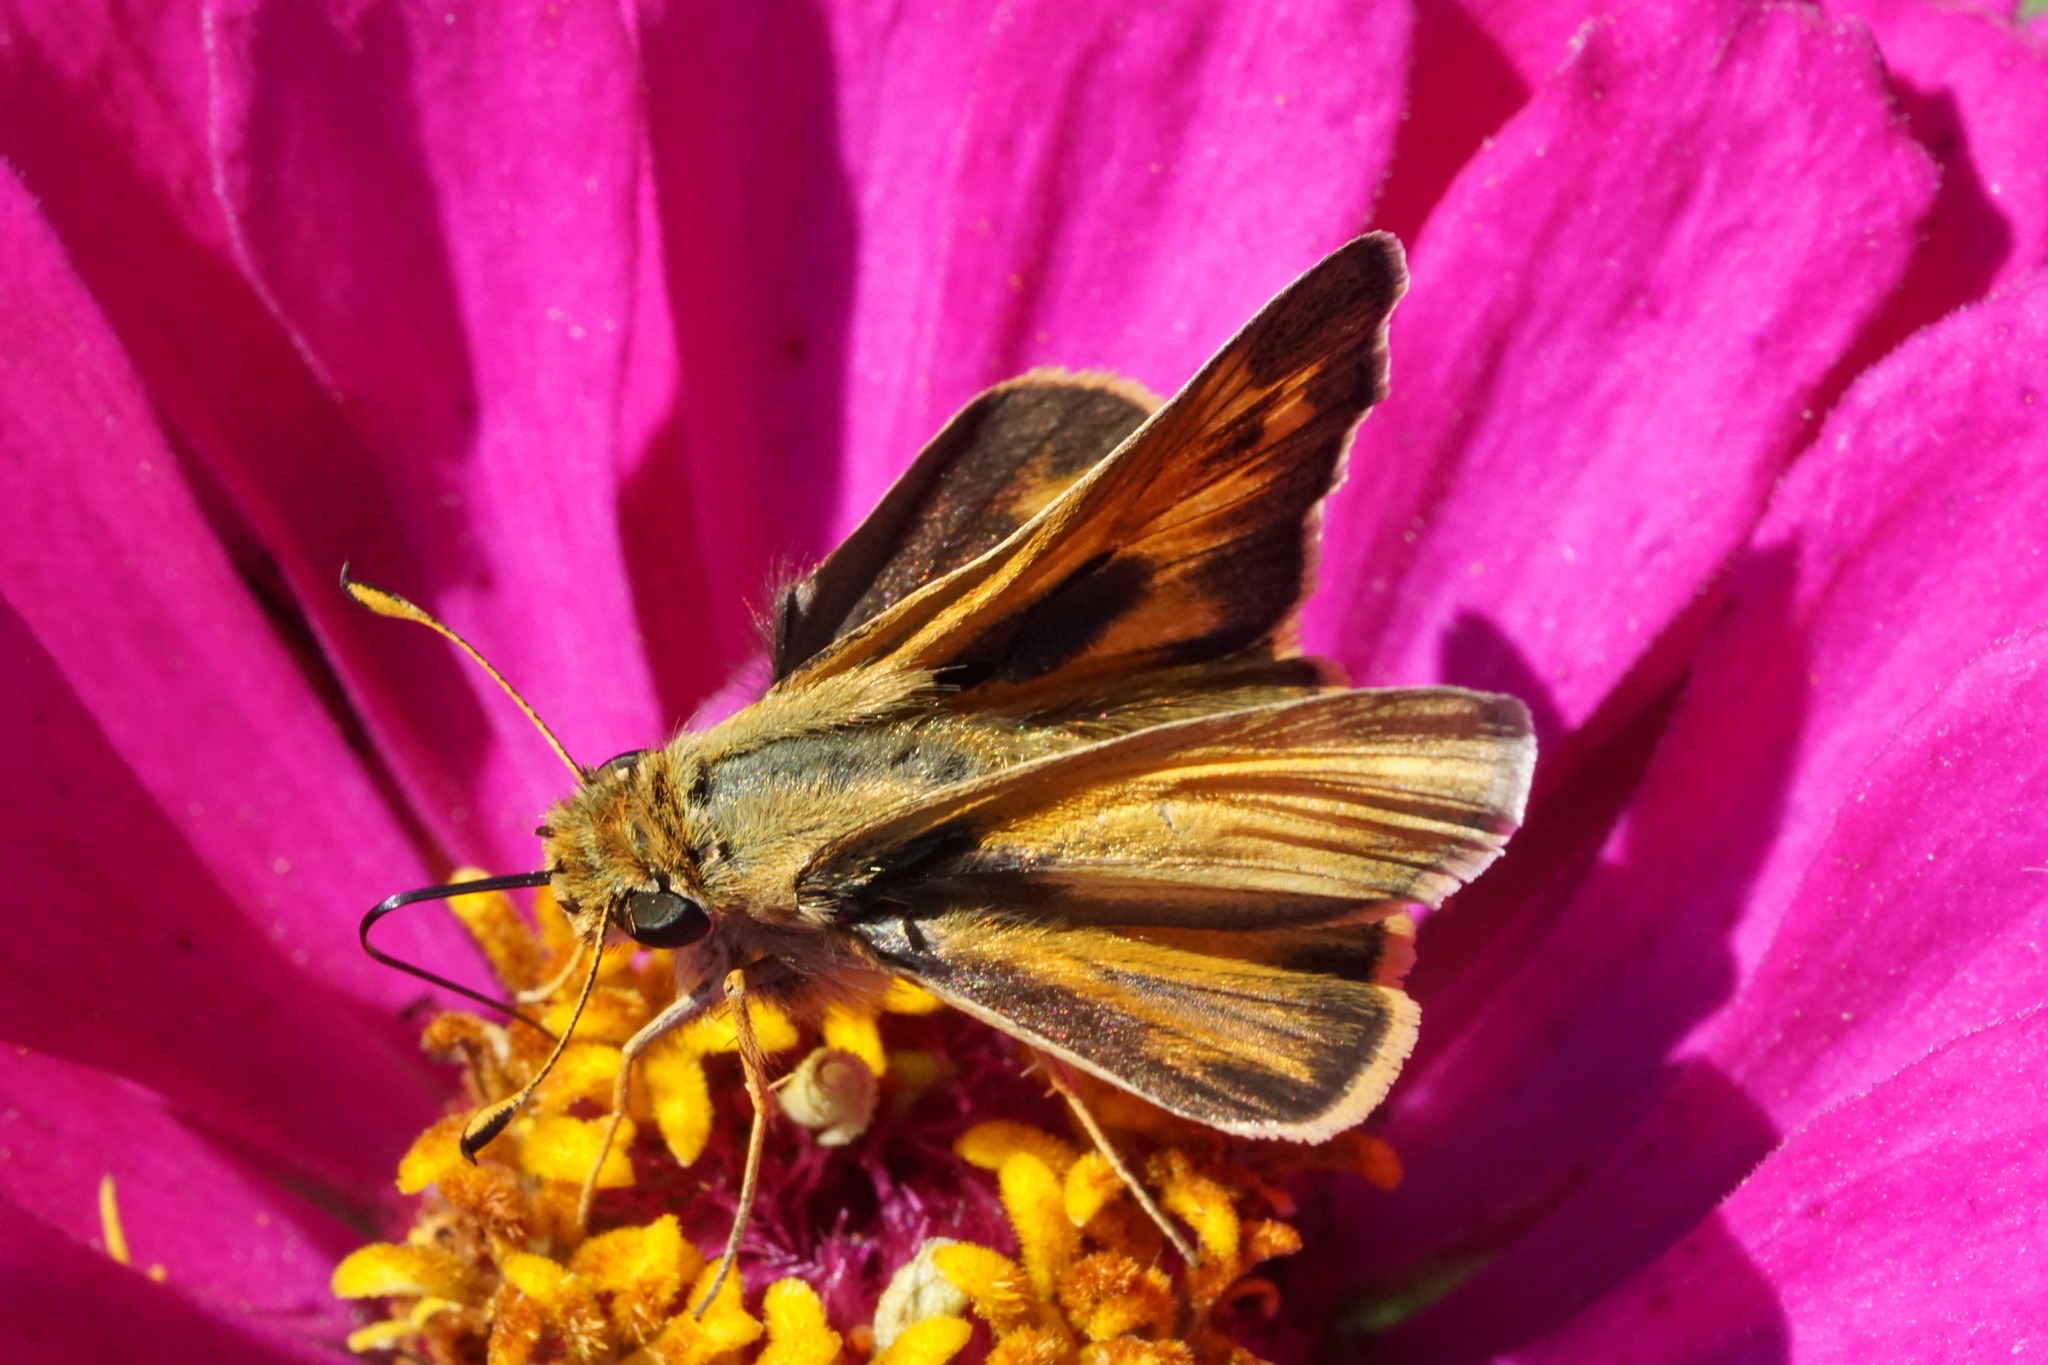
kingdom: Animalia
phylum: Arthropoda
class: Insecta
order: Lepidoptera
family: Hesperiidae
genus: Atalopedes
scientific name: Atalopedes
